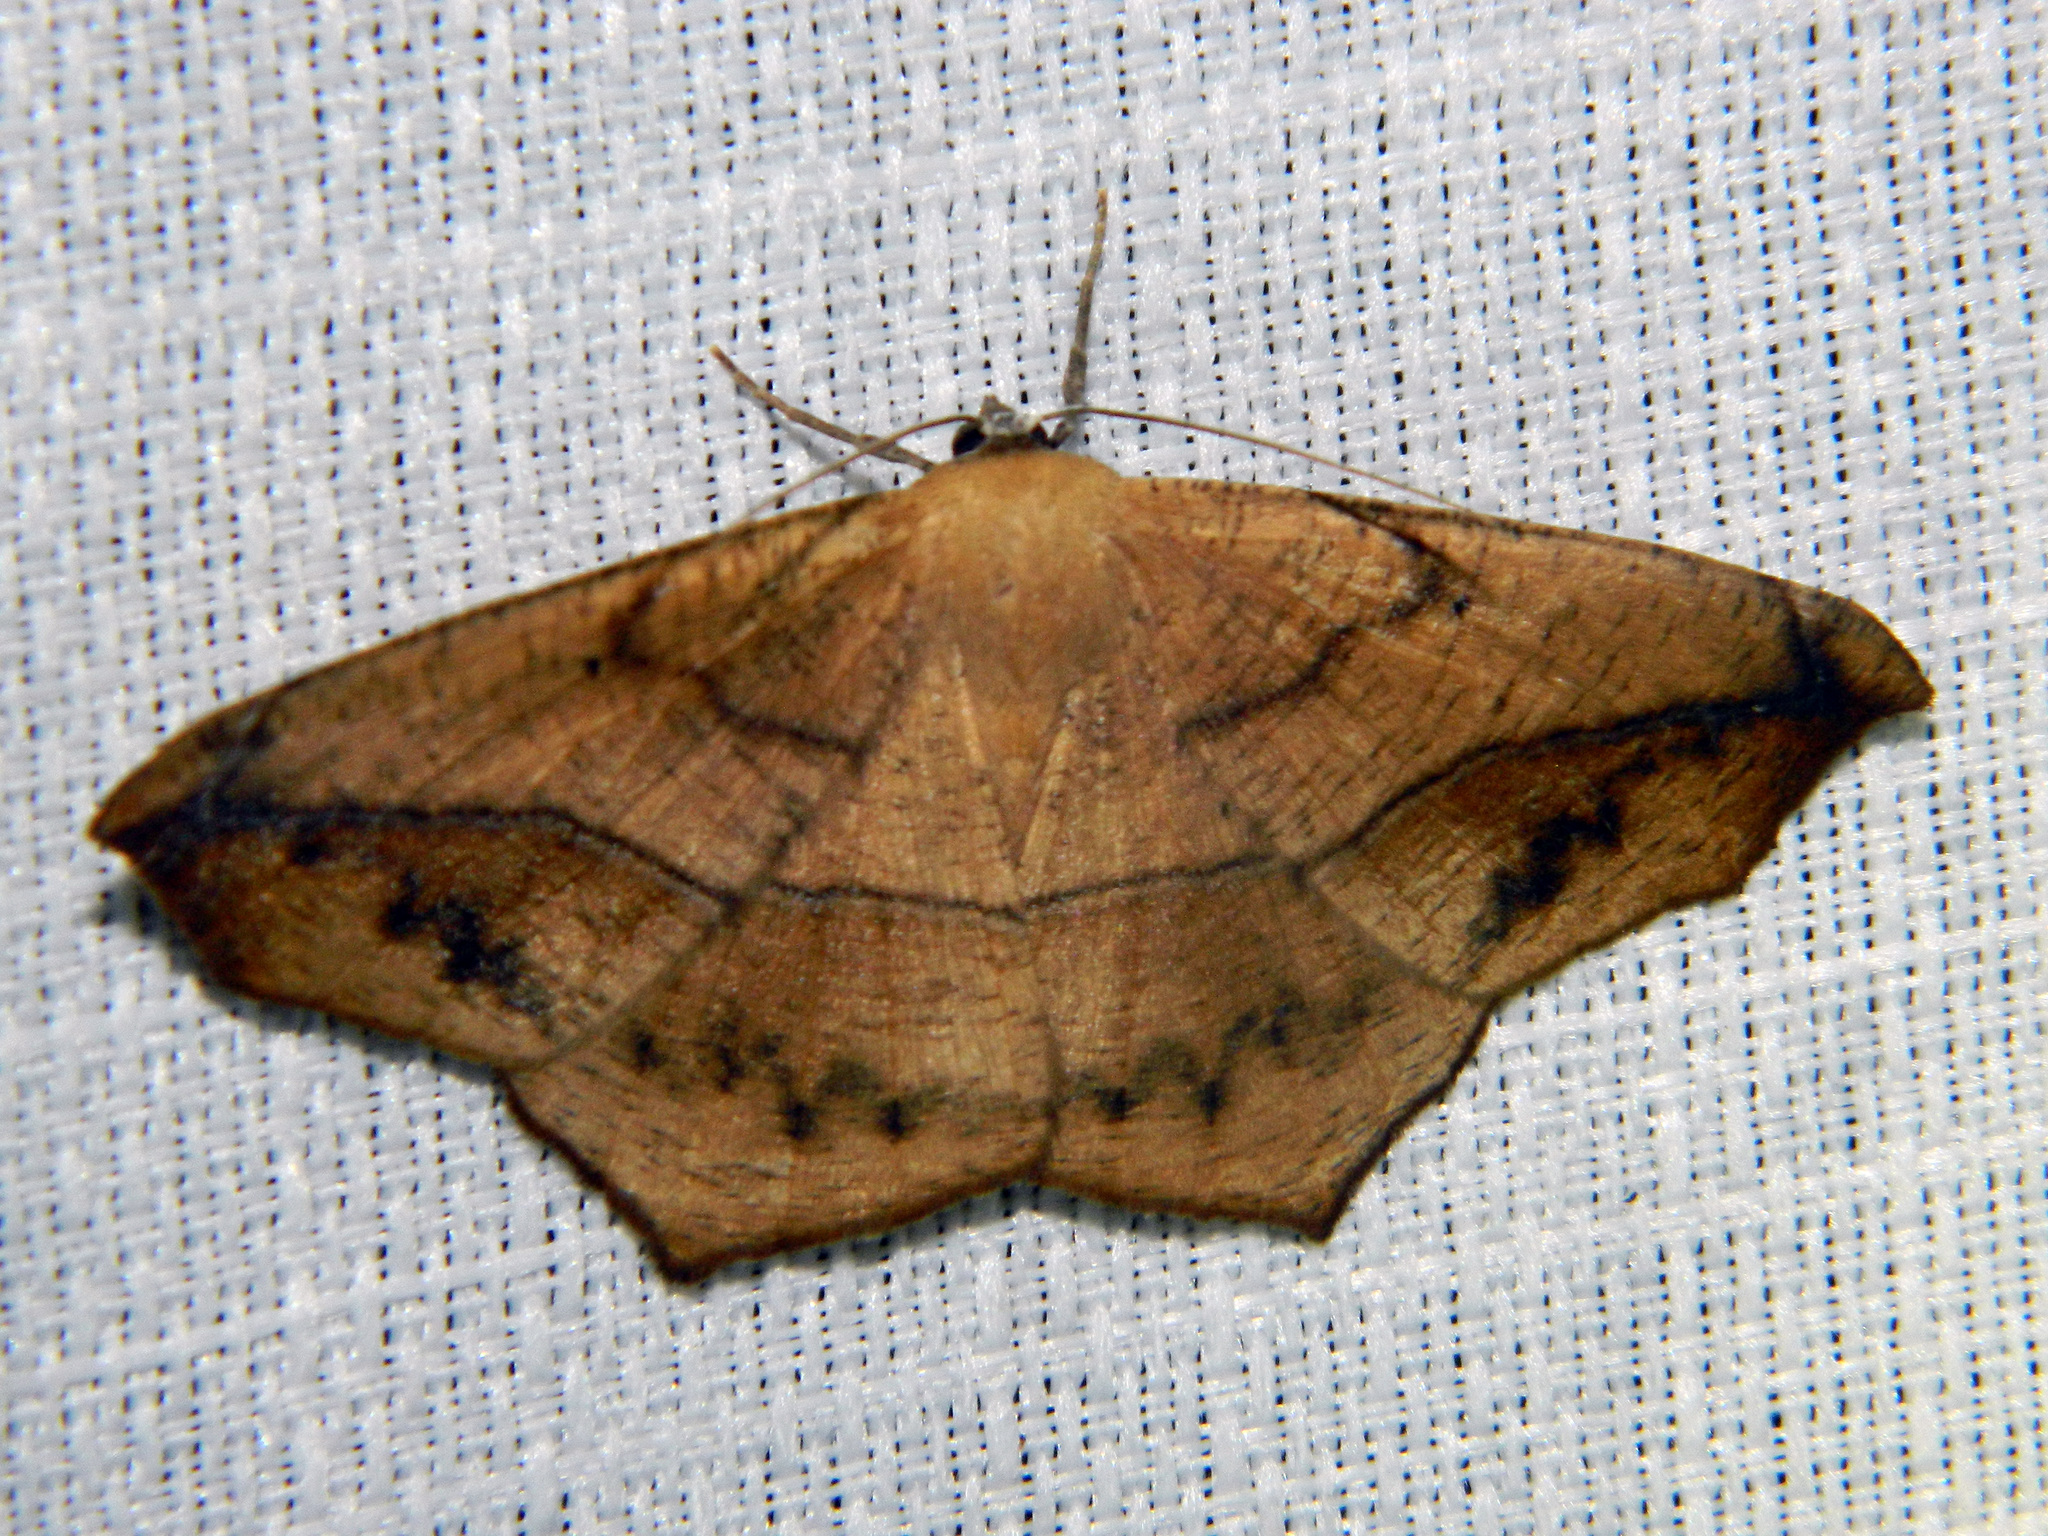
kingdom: Animalia
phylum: Arthropoda
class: Insecta
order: Lepidoptera
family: Geometridae
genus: Prochoerodes
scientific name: Prochoerodes lineola
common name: Large maple spanworm
